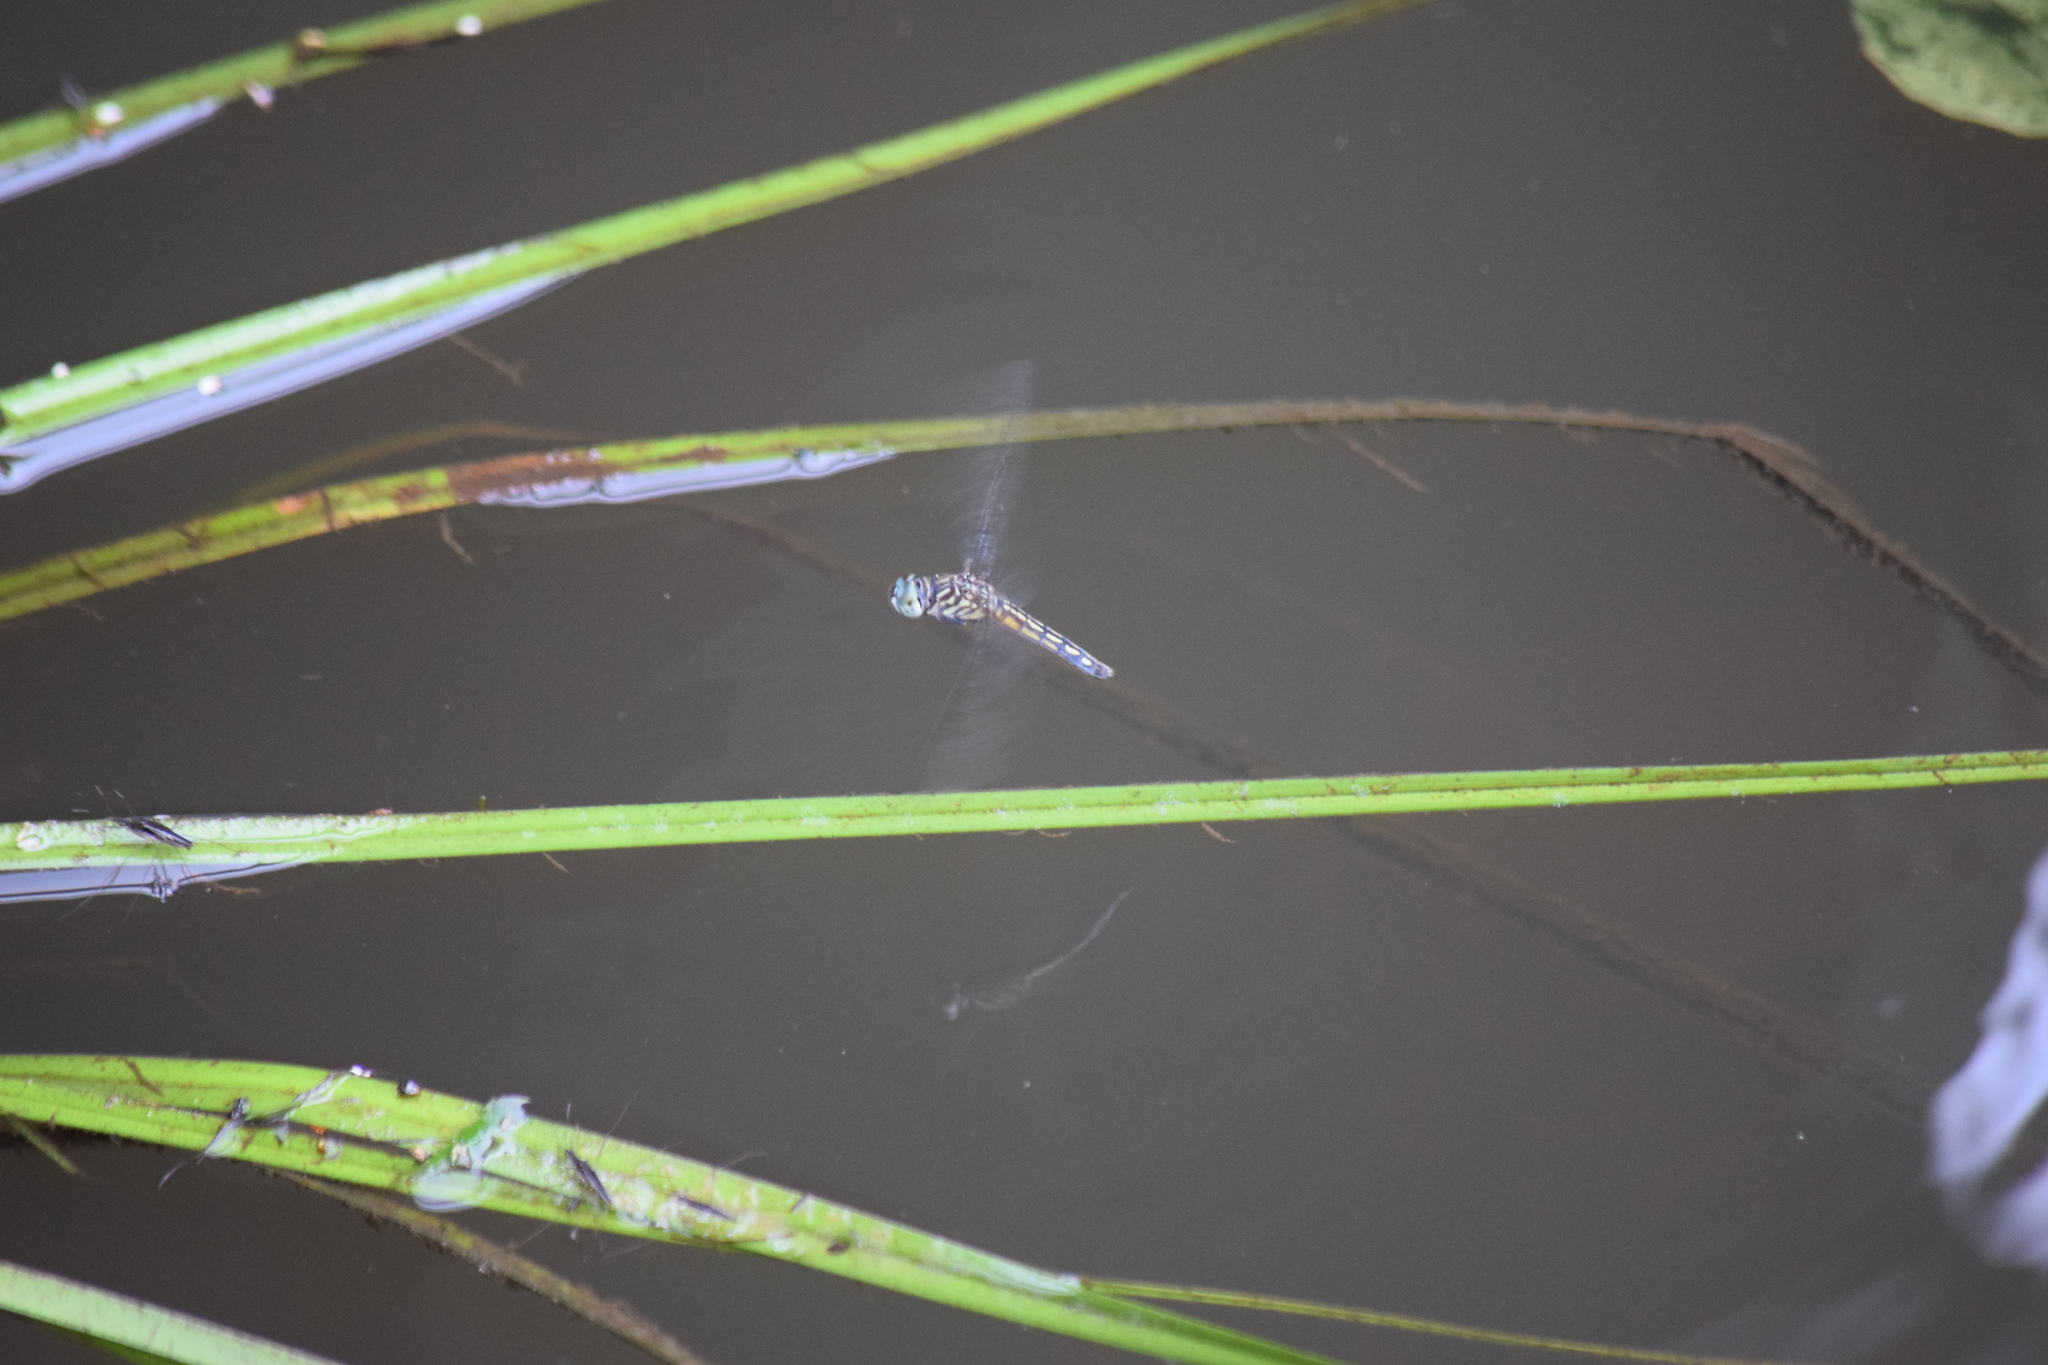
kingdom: Animalia
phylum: Arthropoda
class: Insecta
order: Odonata
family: Libellulidae
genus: Pachydiplax
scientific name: Pachydiplax longipennis
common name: Blue dasher
